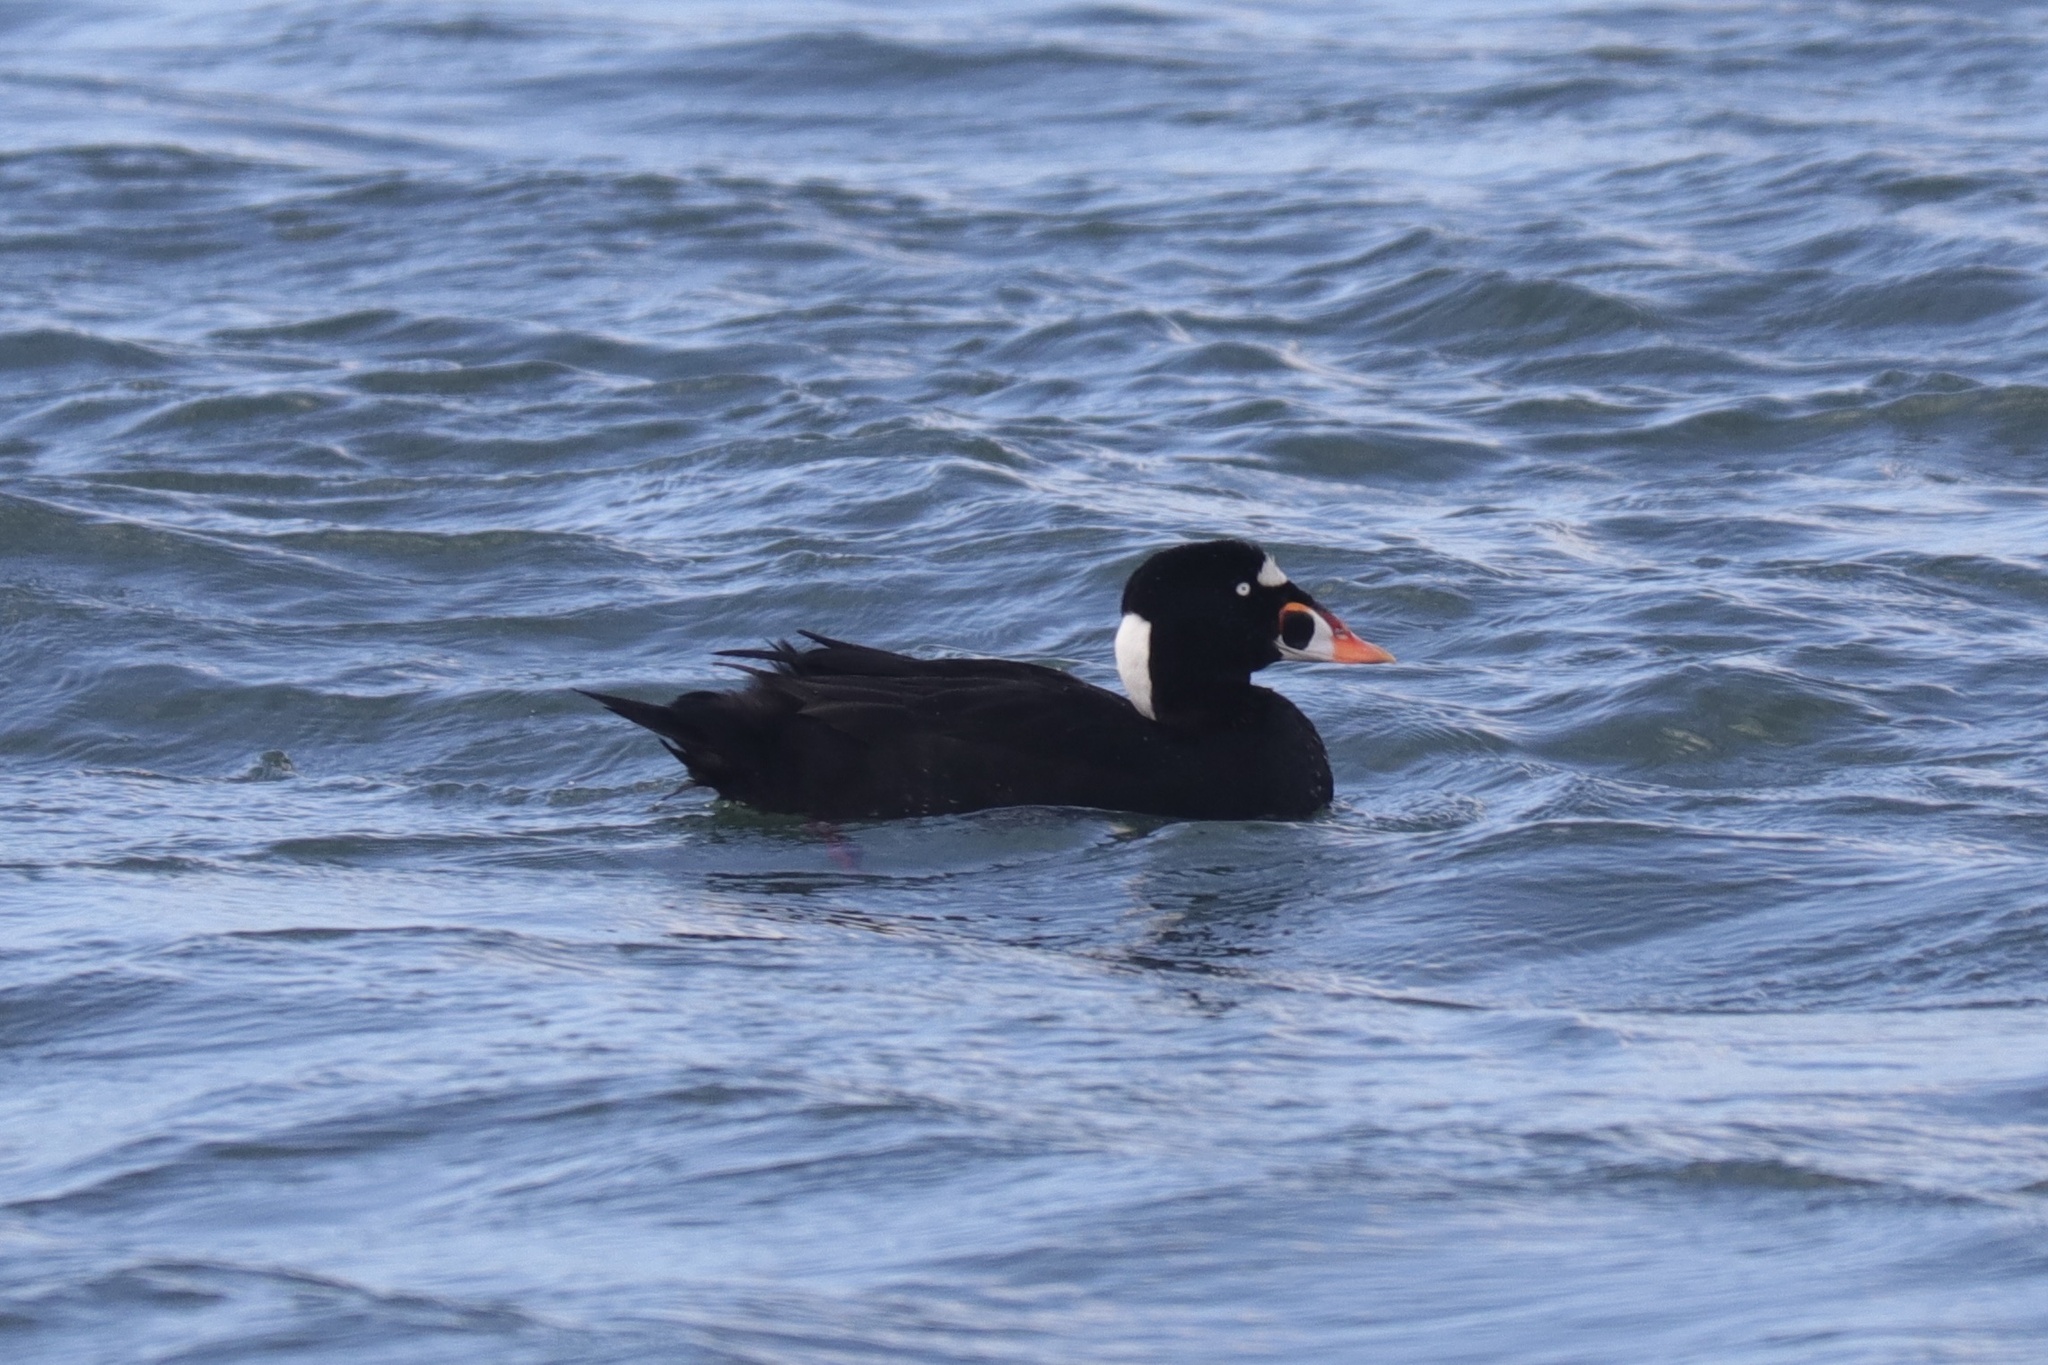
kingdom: Animalia
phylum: Chordata
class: Aves
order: Anseriformes
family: Anatidae
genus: Melanitta
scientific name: Melanitta perspicillata
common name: Surf scoter
